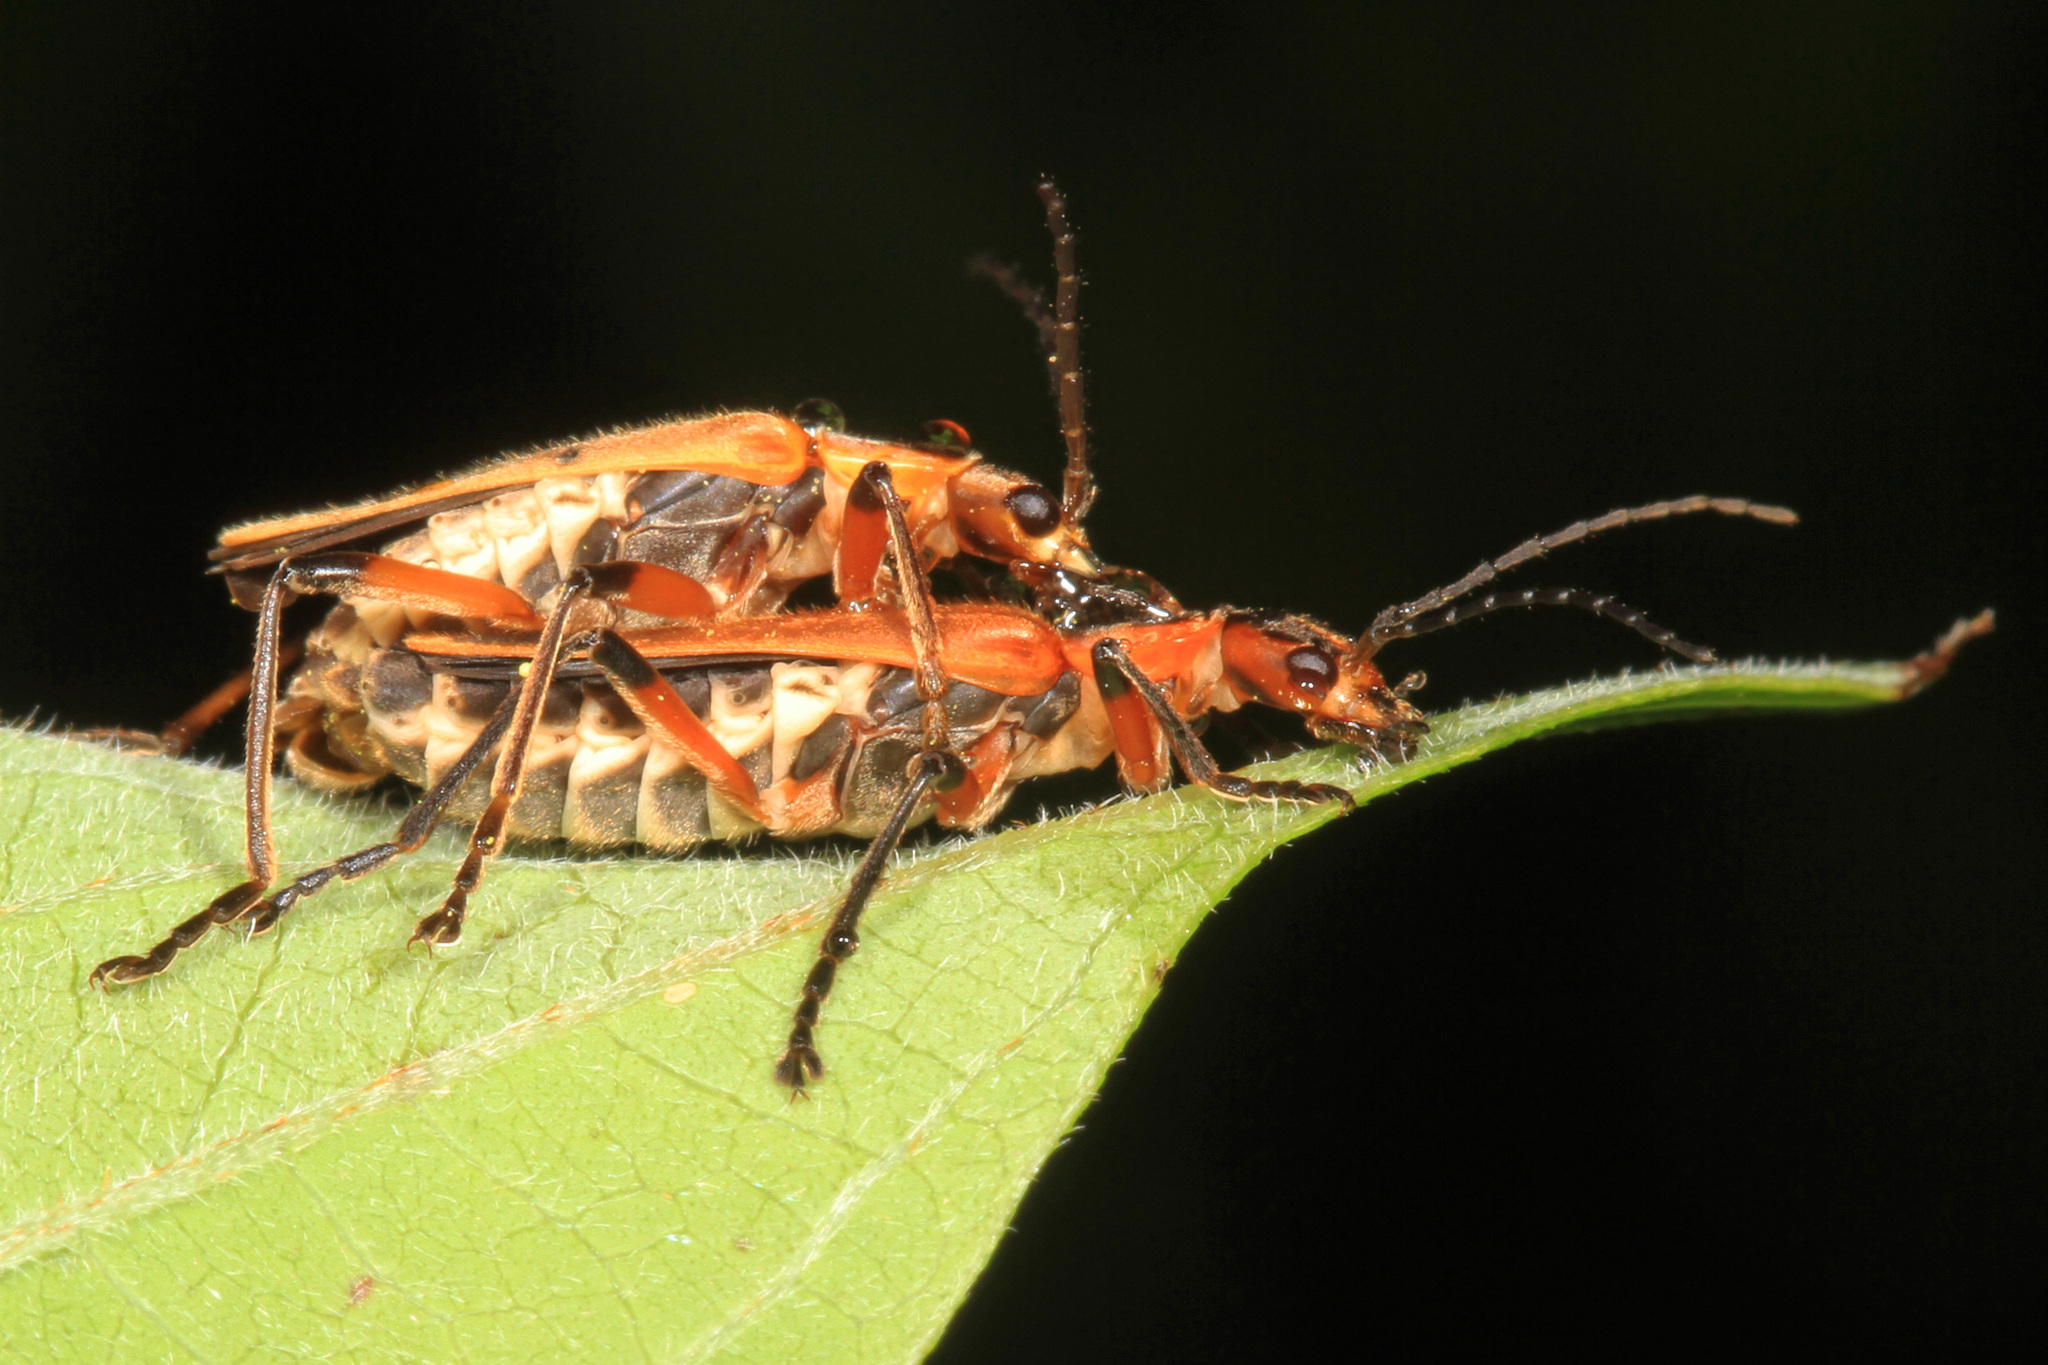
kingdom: Animalia
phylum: Arthropoda
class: Insecta
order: Coleoptera
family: Cantharidae
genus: Chauliognathus
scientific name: Chauliognathus marginatus
